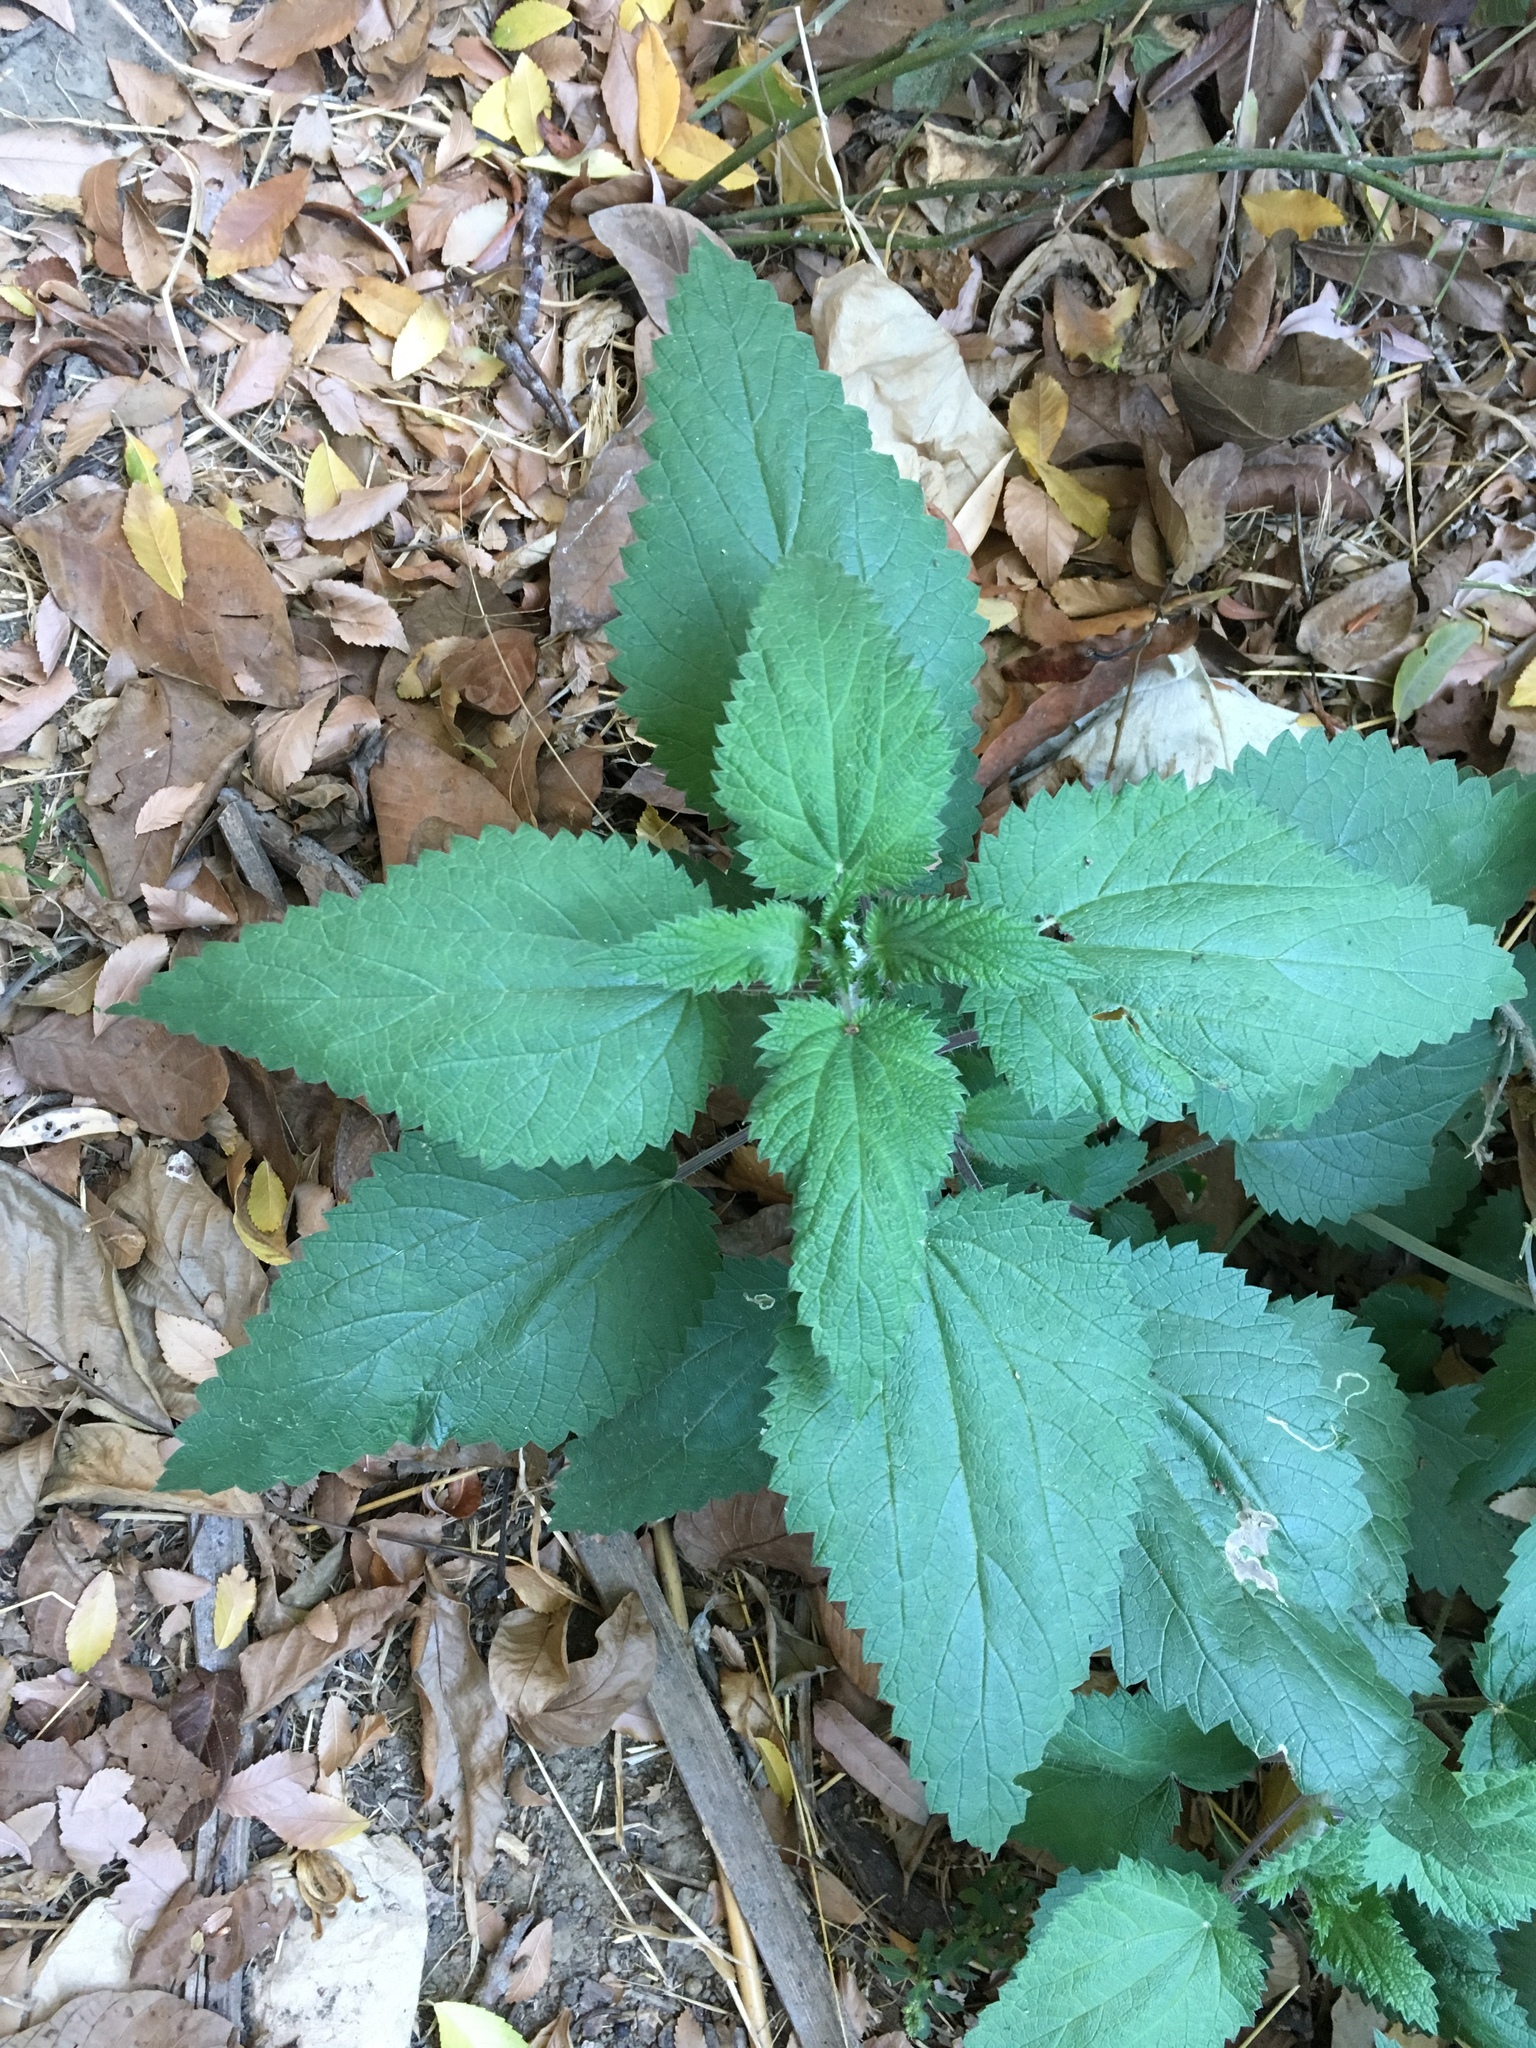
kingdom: Plantae
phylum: Tracheophyta
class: Magnoliopsida
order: Rosales
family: Urticaceae
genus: Urtica
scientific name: Urtica dioica
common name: Common nettle
